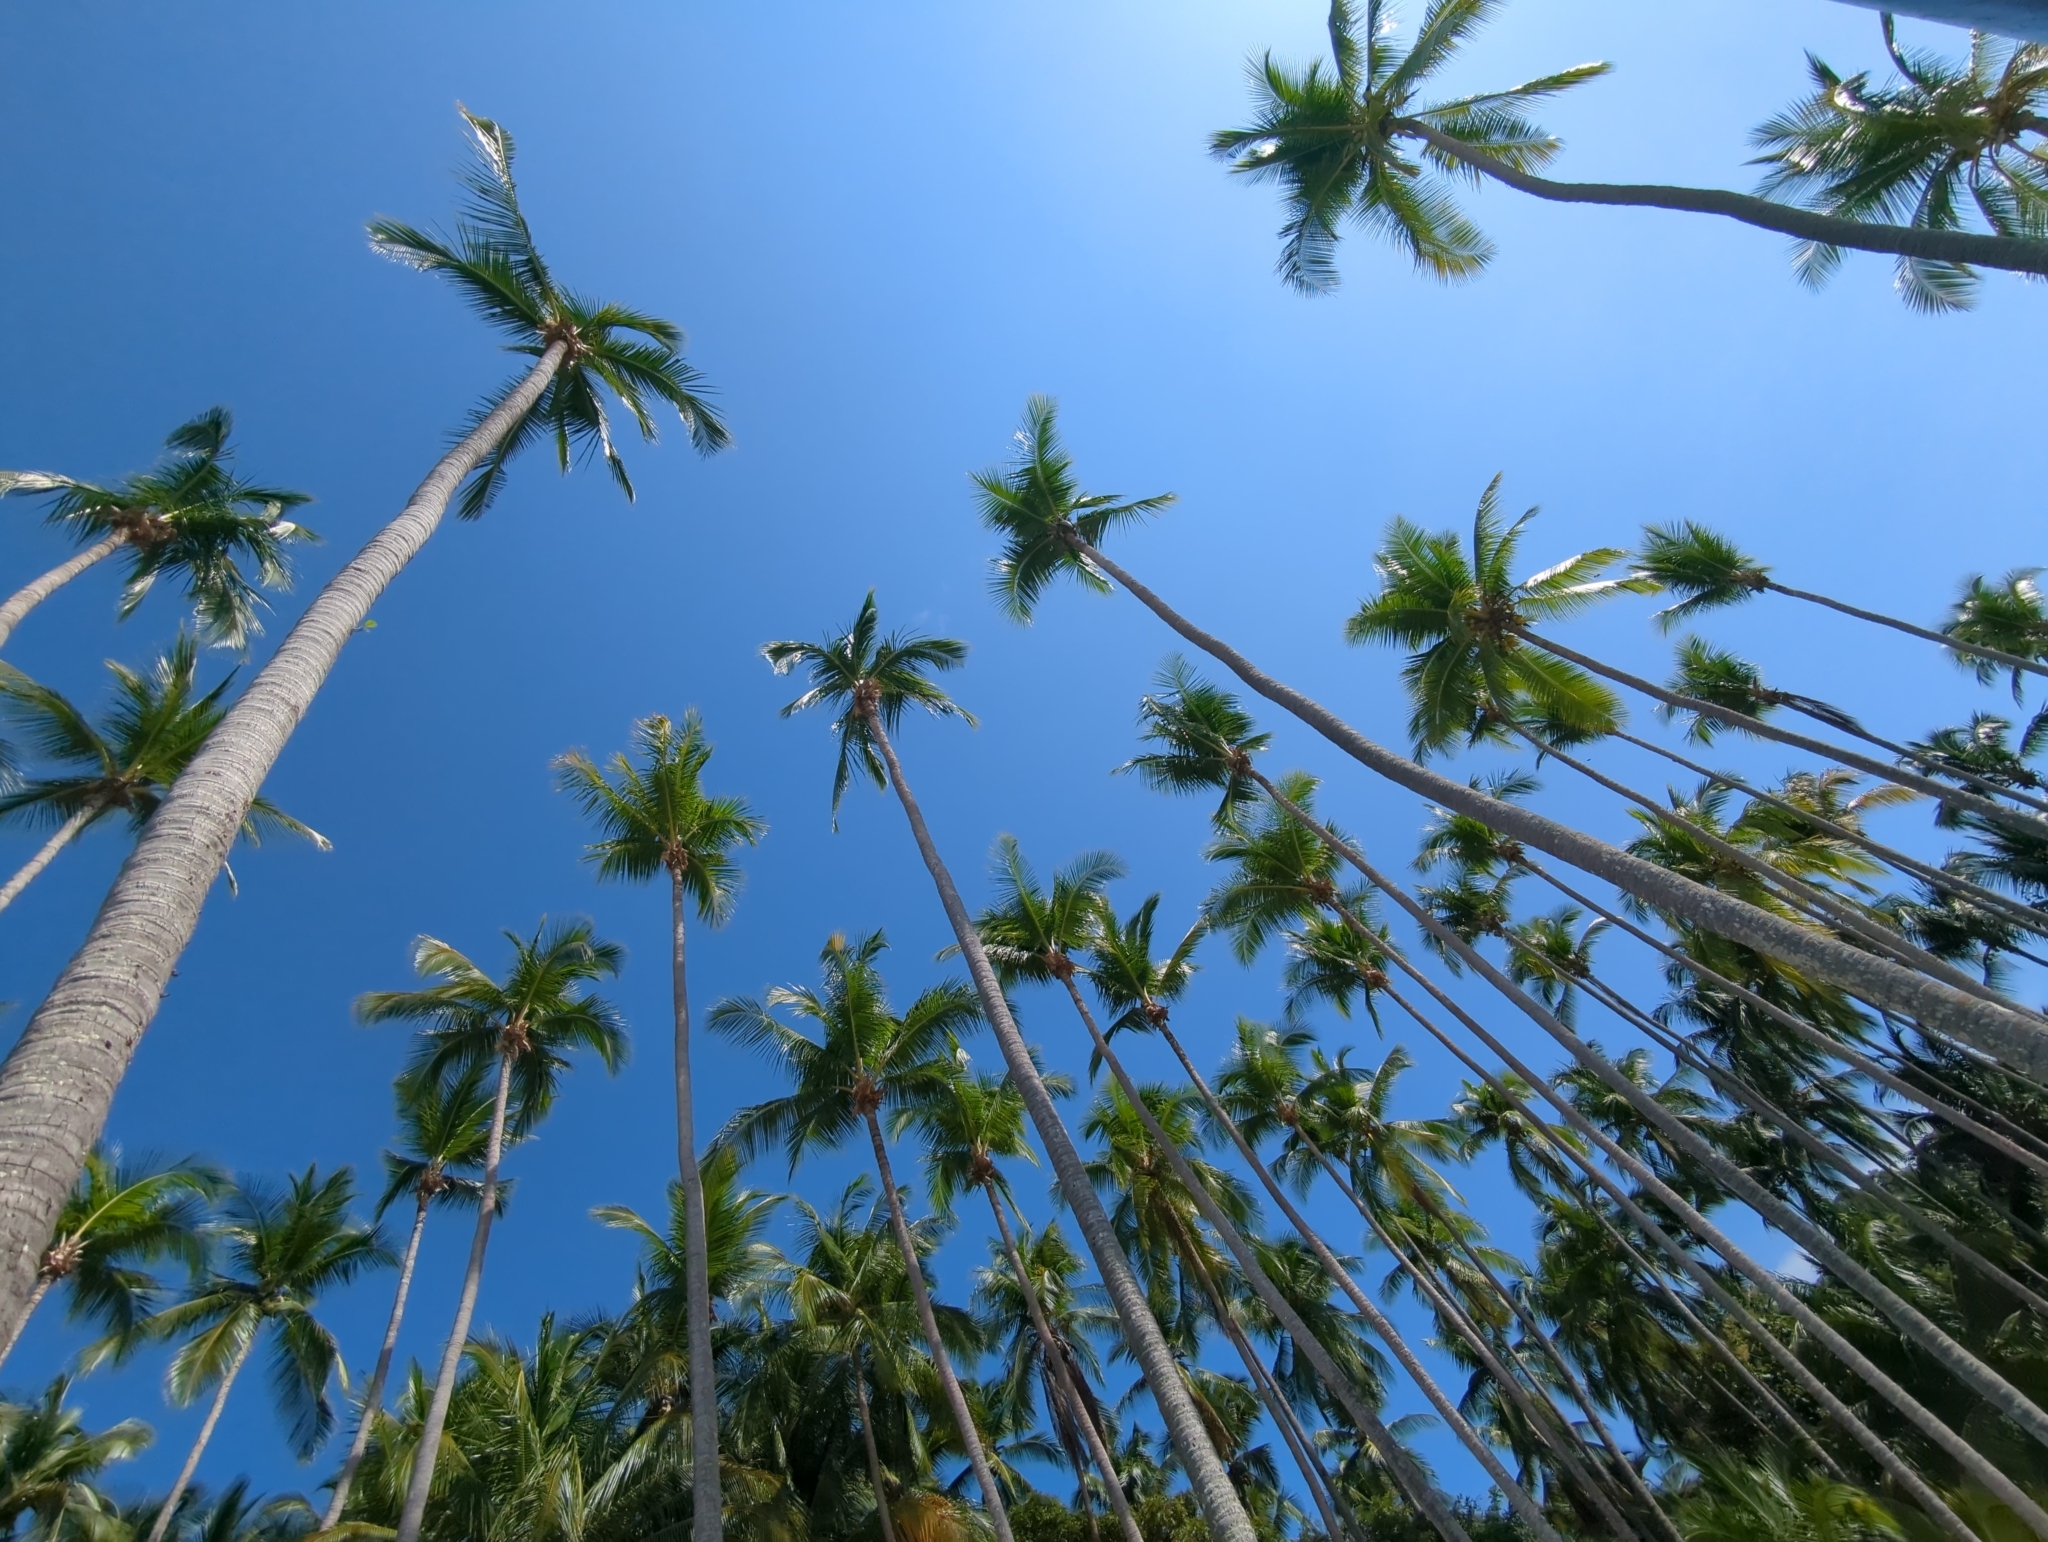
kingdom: Plantae
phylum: Tracheophyta
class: Liliopsida
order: Arecales
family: Arecaceae
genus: Cocos
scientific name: Cocos nucifera
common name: Coconut palm
